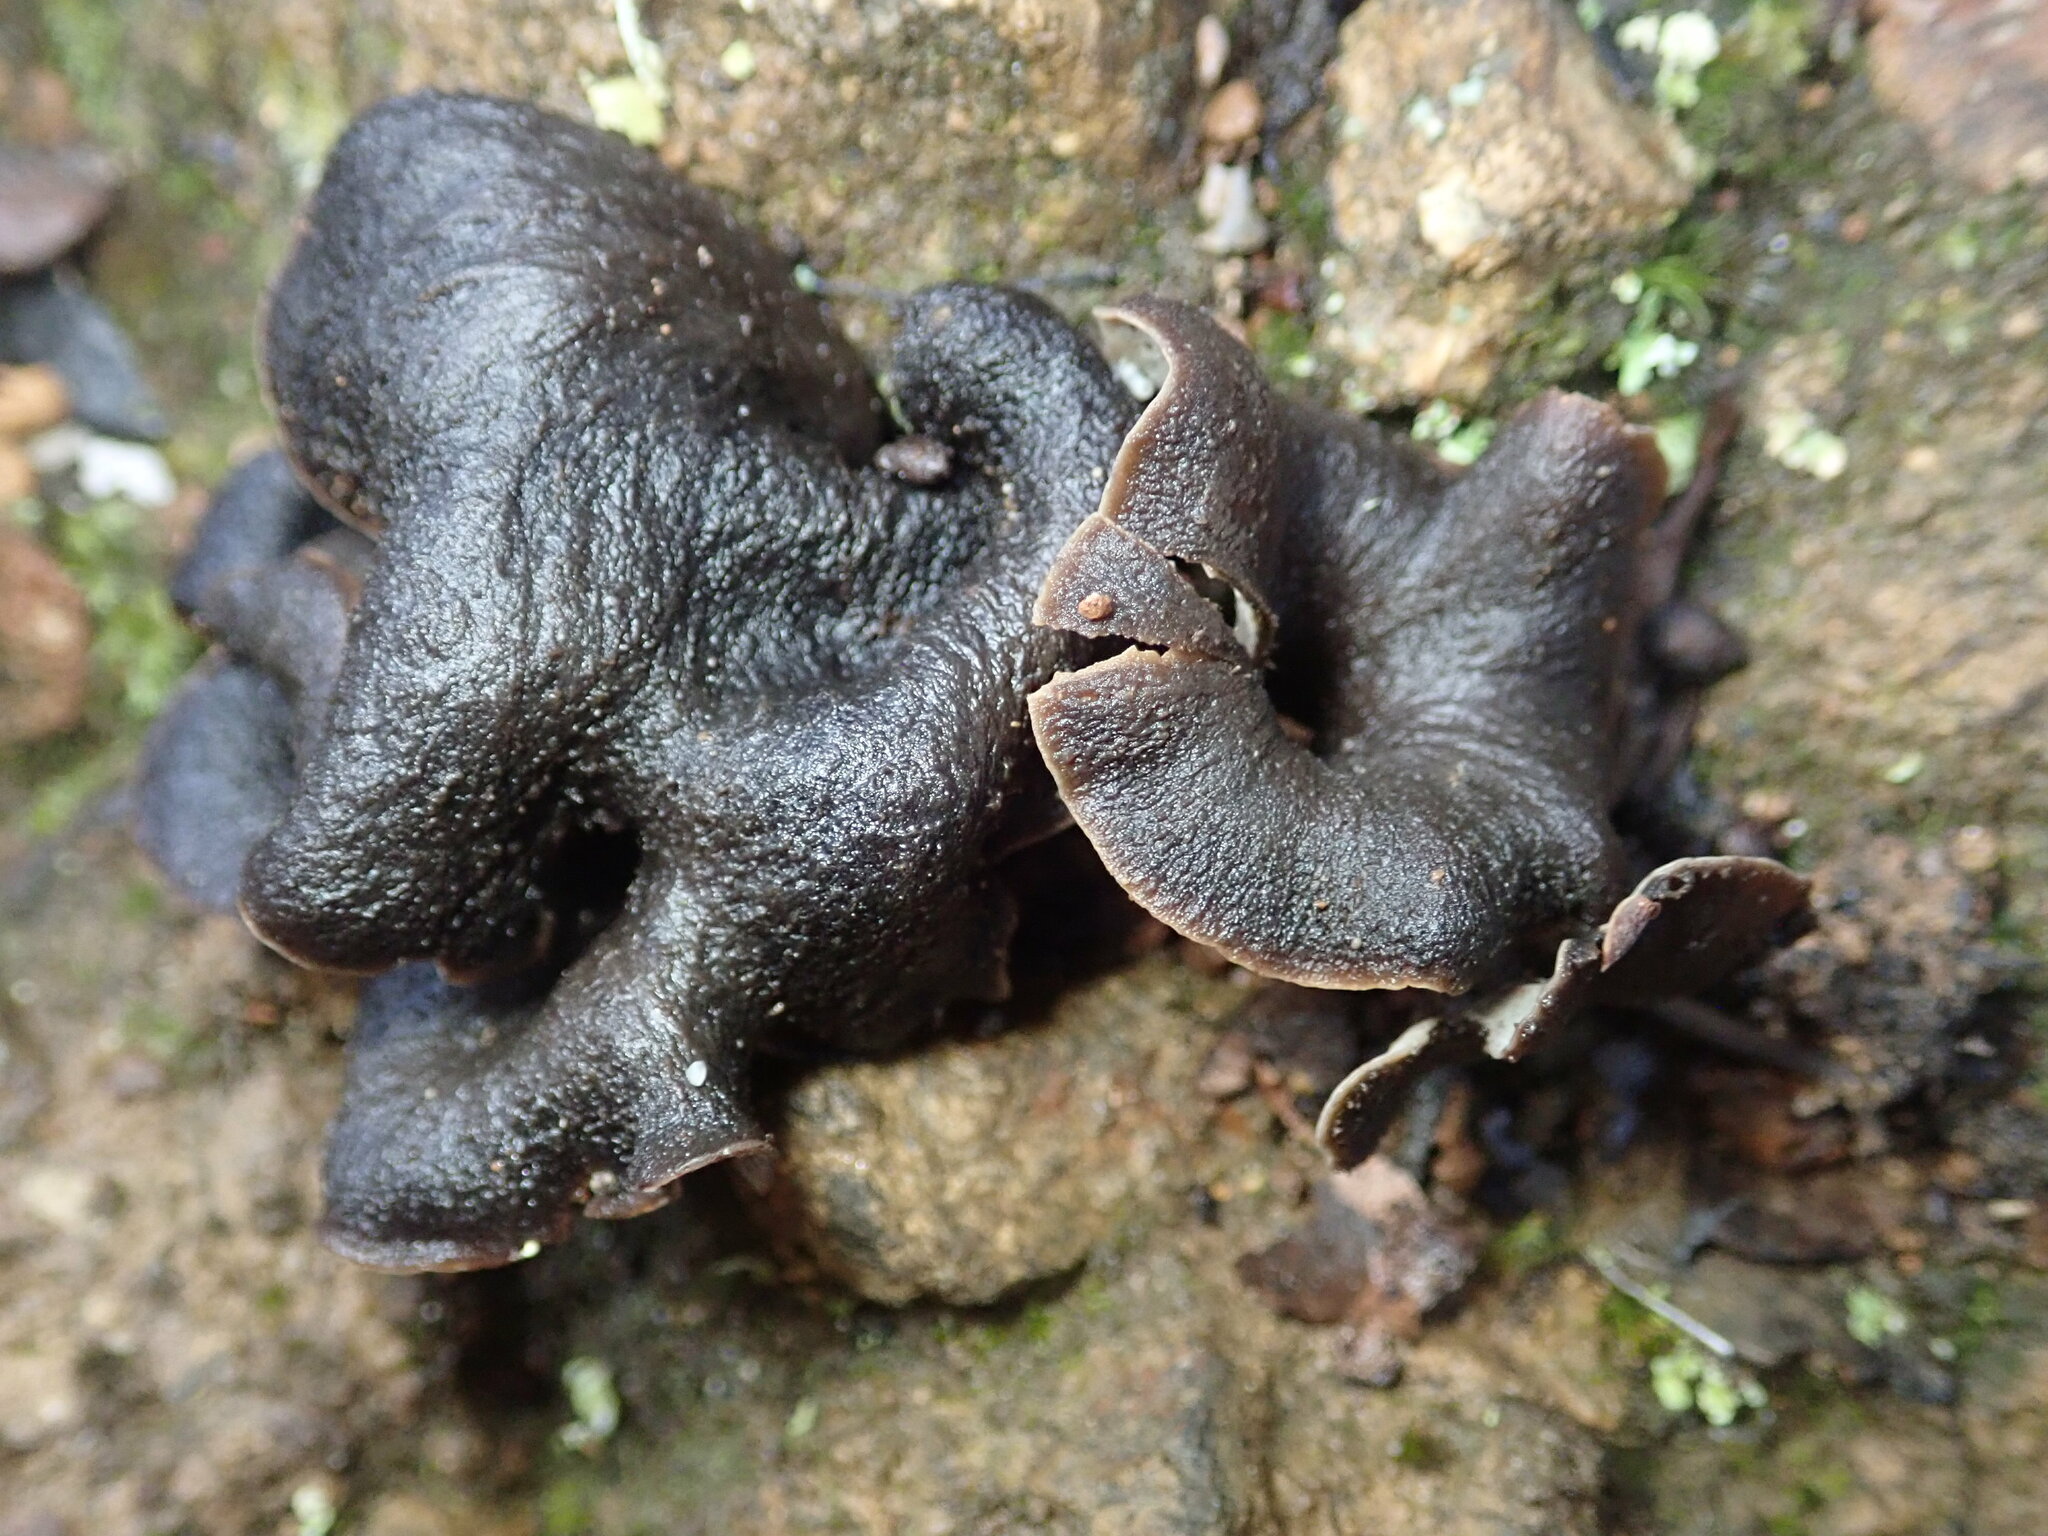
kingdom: Fungi
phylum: Basidiomycota
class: Agaricomycetes
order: Cantharellales
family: Hydnaceae
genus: Craterellus
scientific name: Craterellus calicornucopioides
